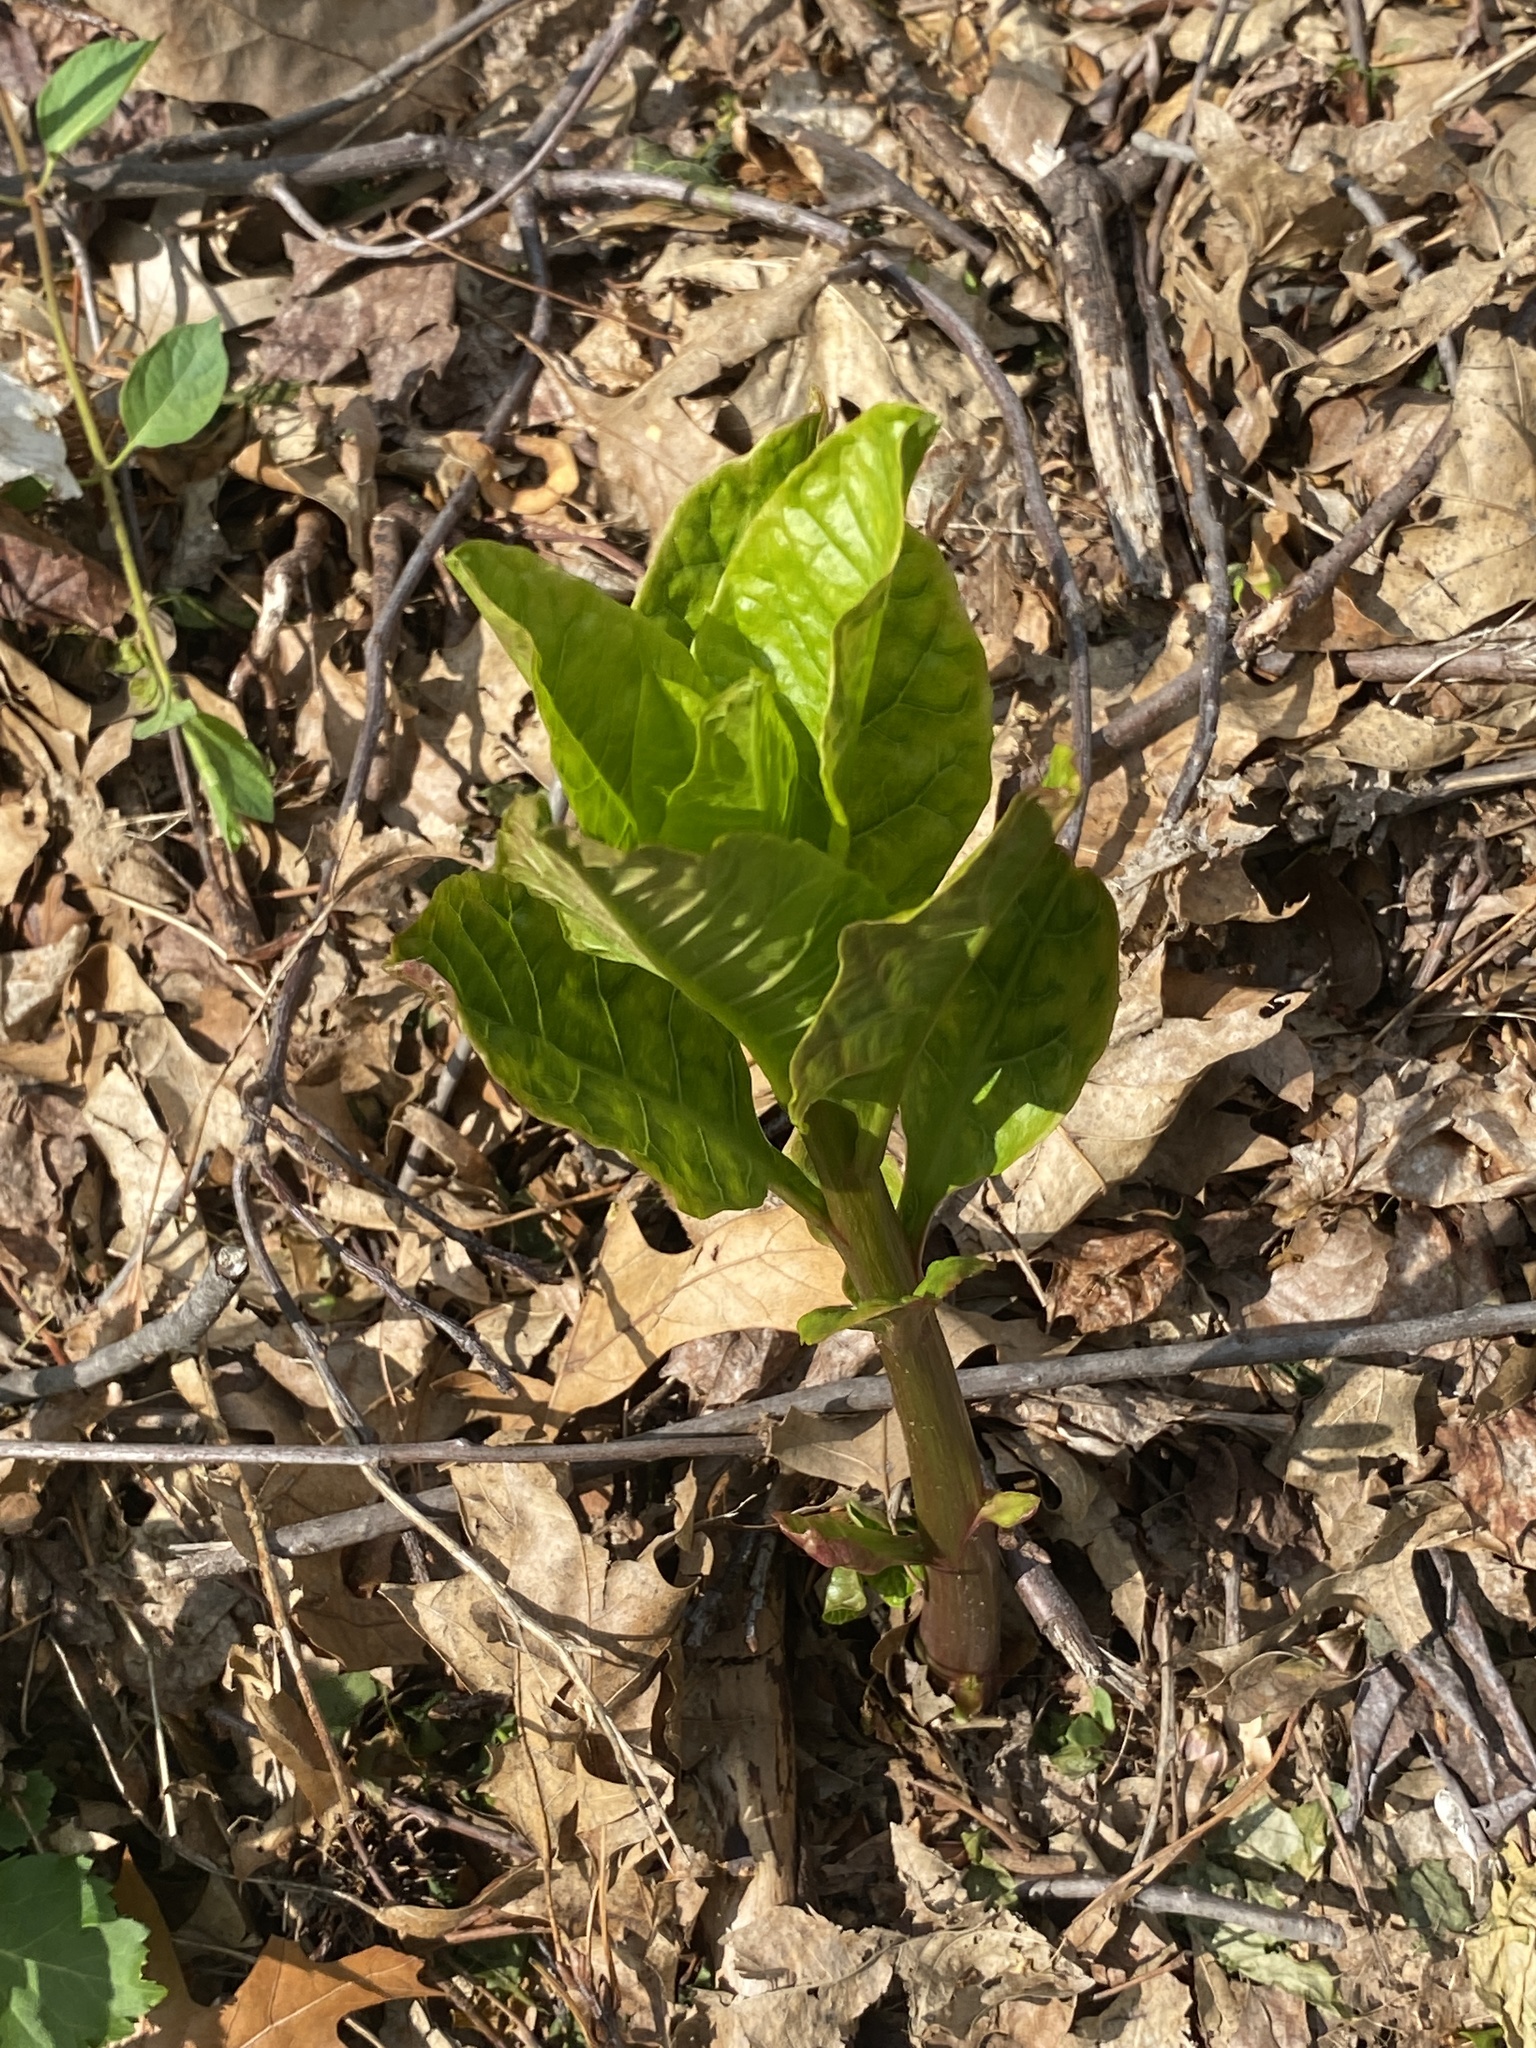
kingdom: Plantae
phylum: Tracheophyta
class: Magnoliopsida
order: Caryophyllales
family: Phytolaccaceae
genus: Phytolacca
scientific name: Phytolacca americana
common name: American pokeweed
